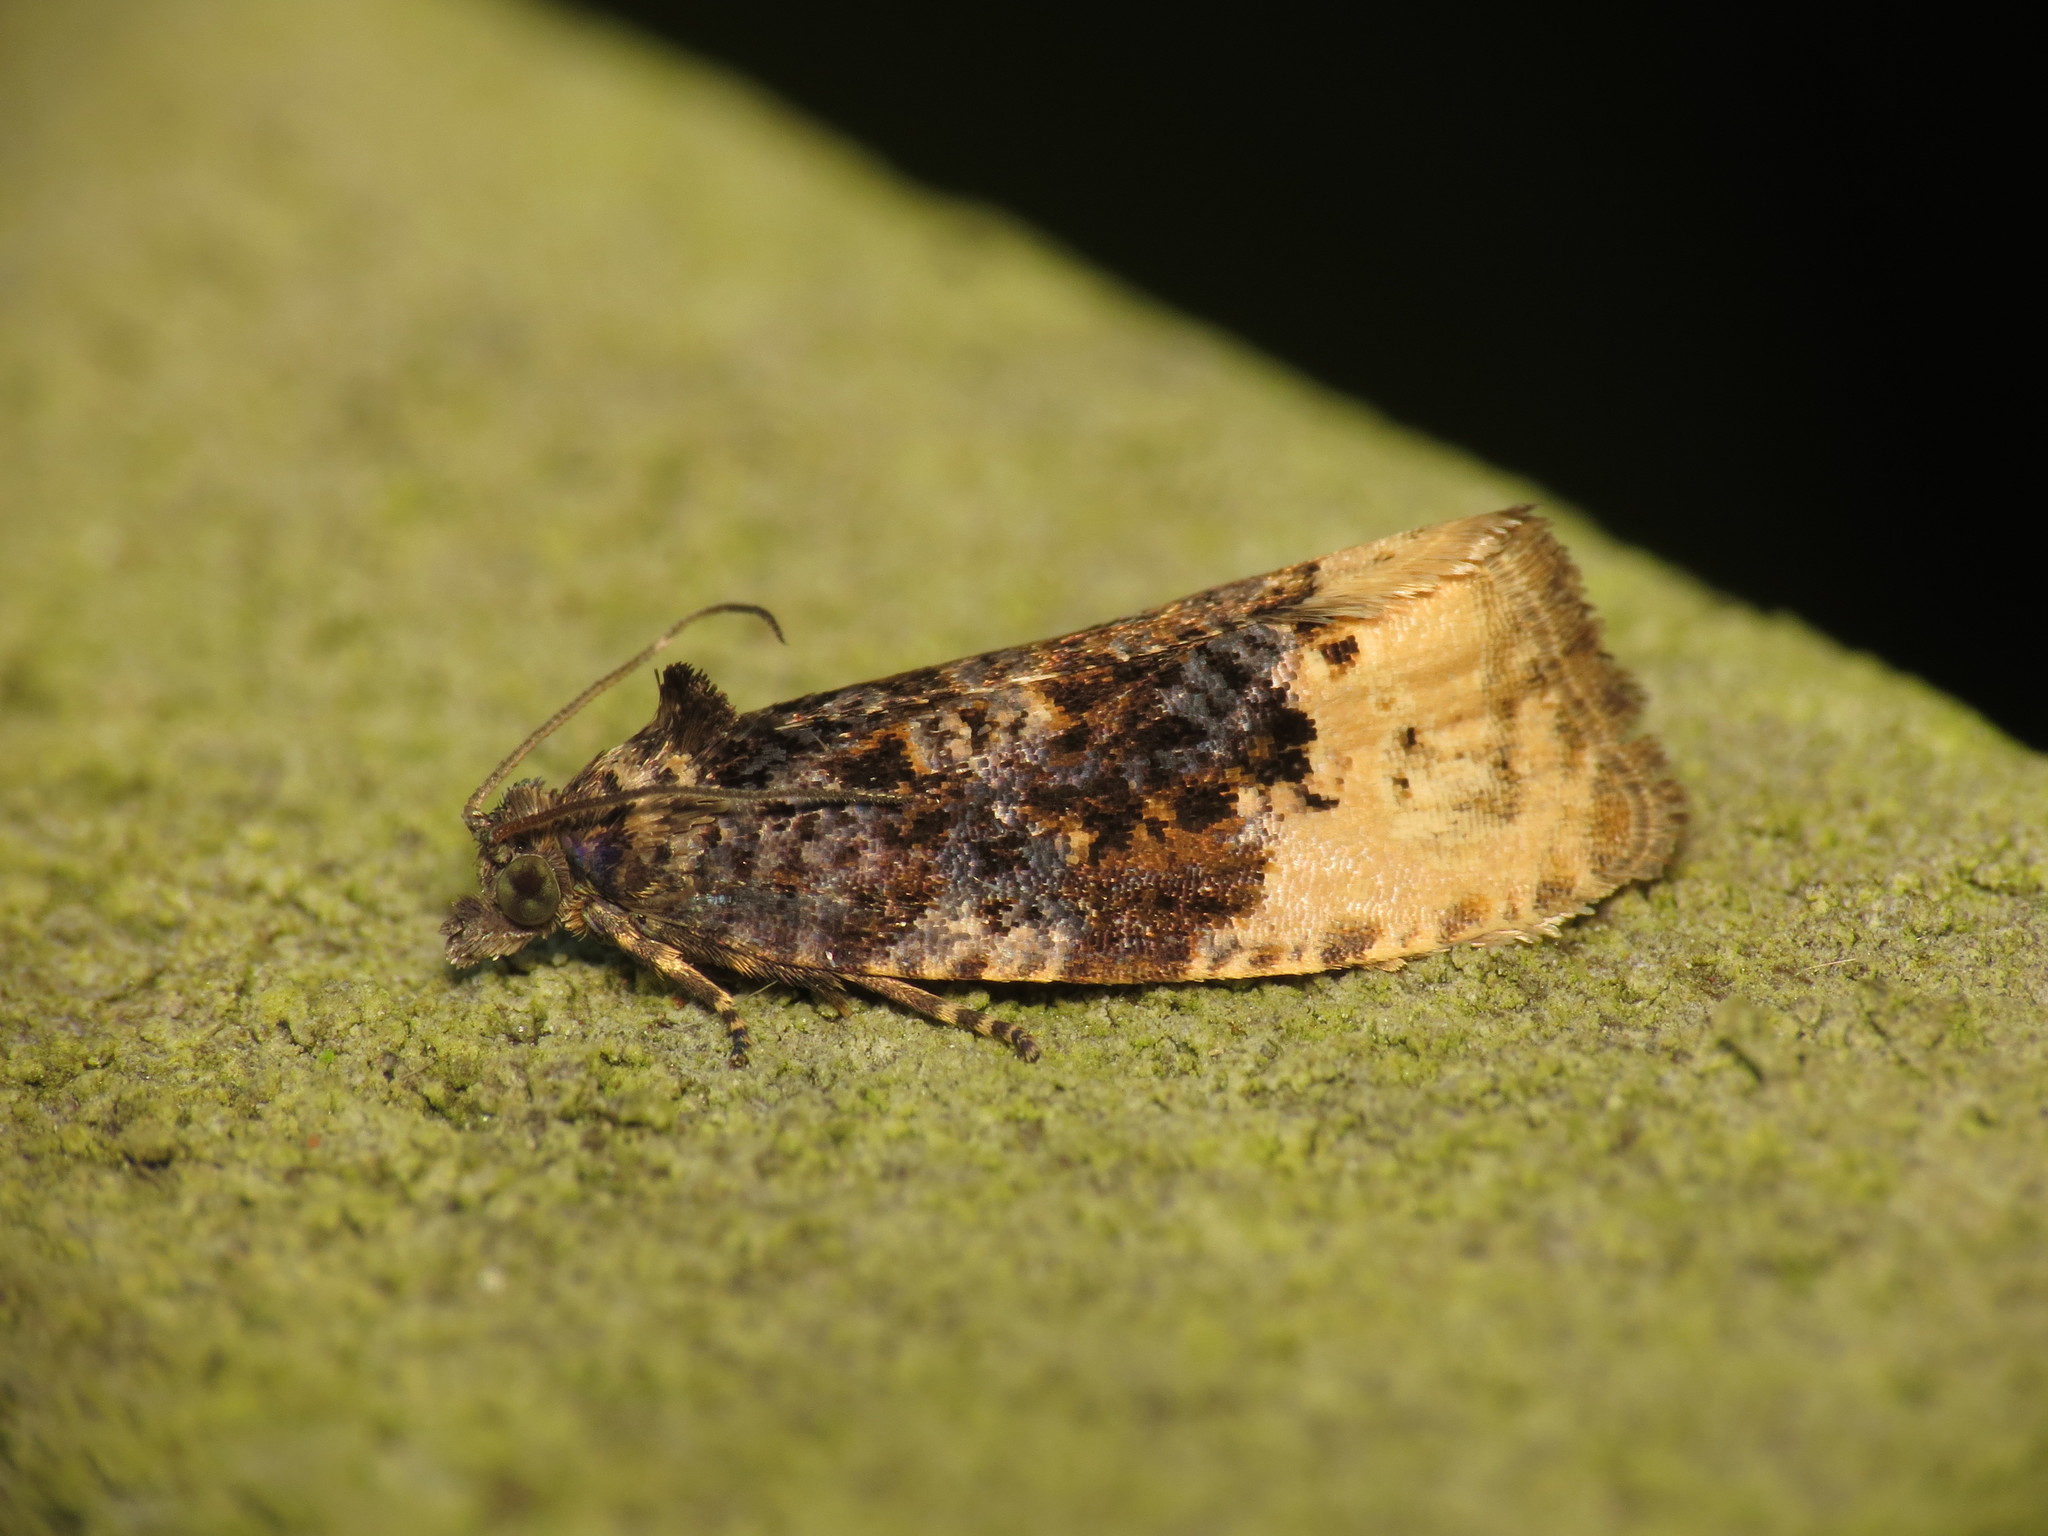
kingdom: Animalia
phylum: Arthropoda
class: Insecta
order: Lepidoptera
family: Tortricidae
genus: Hedya
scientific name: Hedya ochroleucana
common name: Buff-tipped marble
